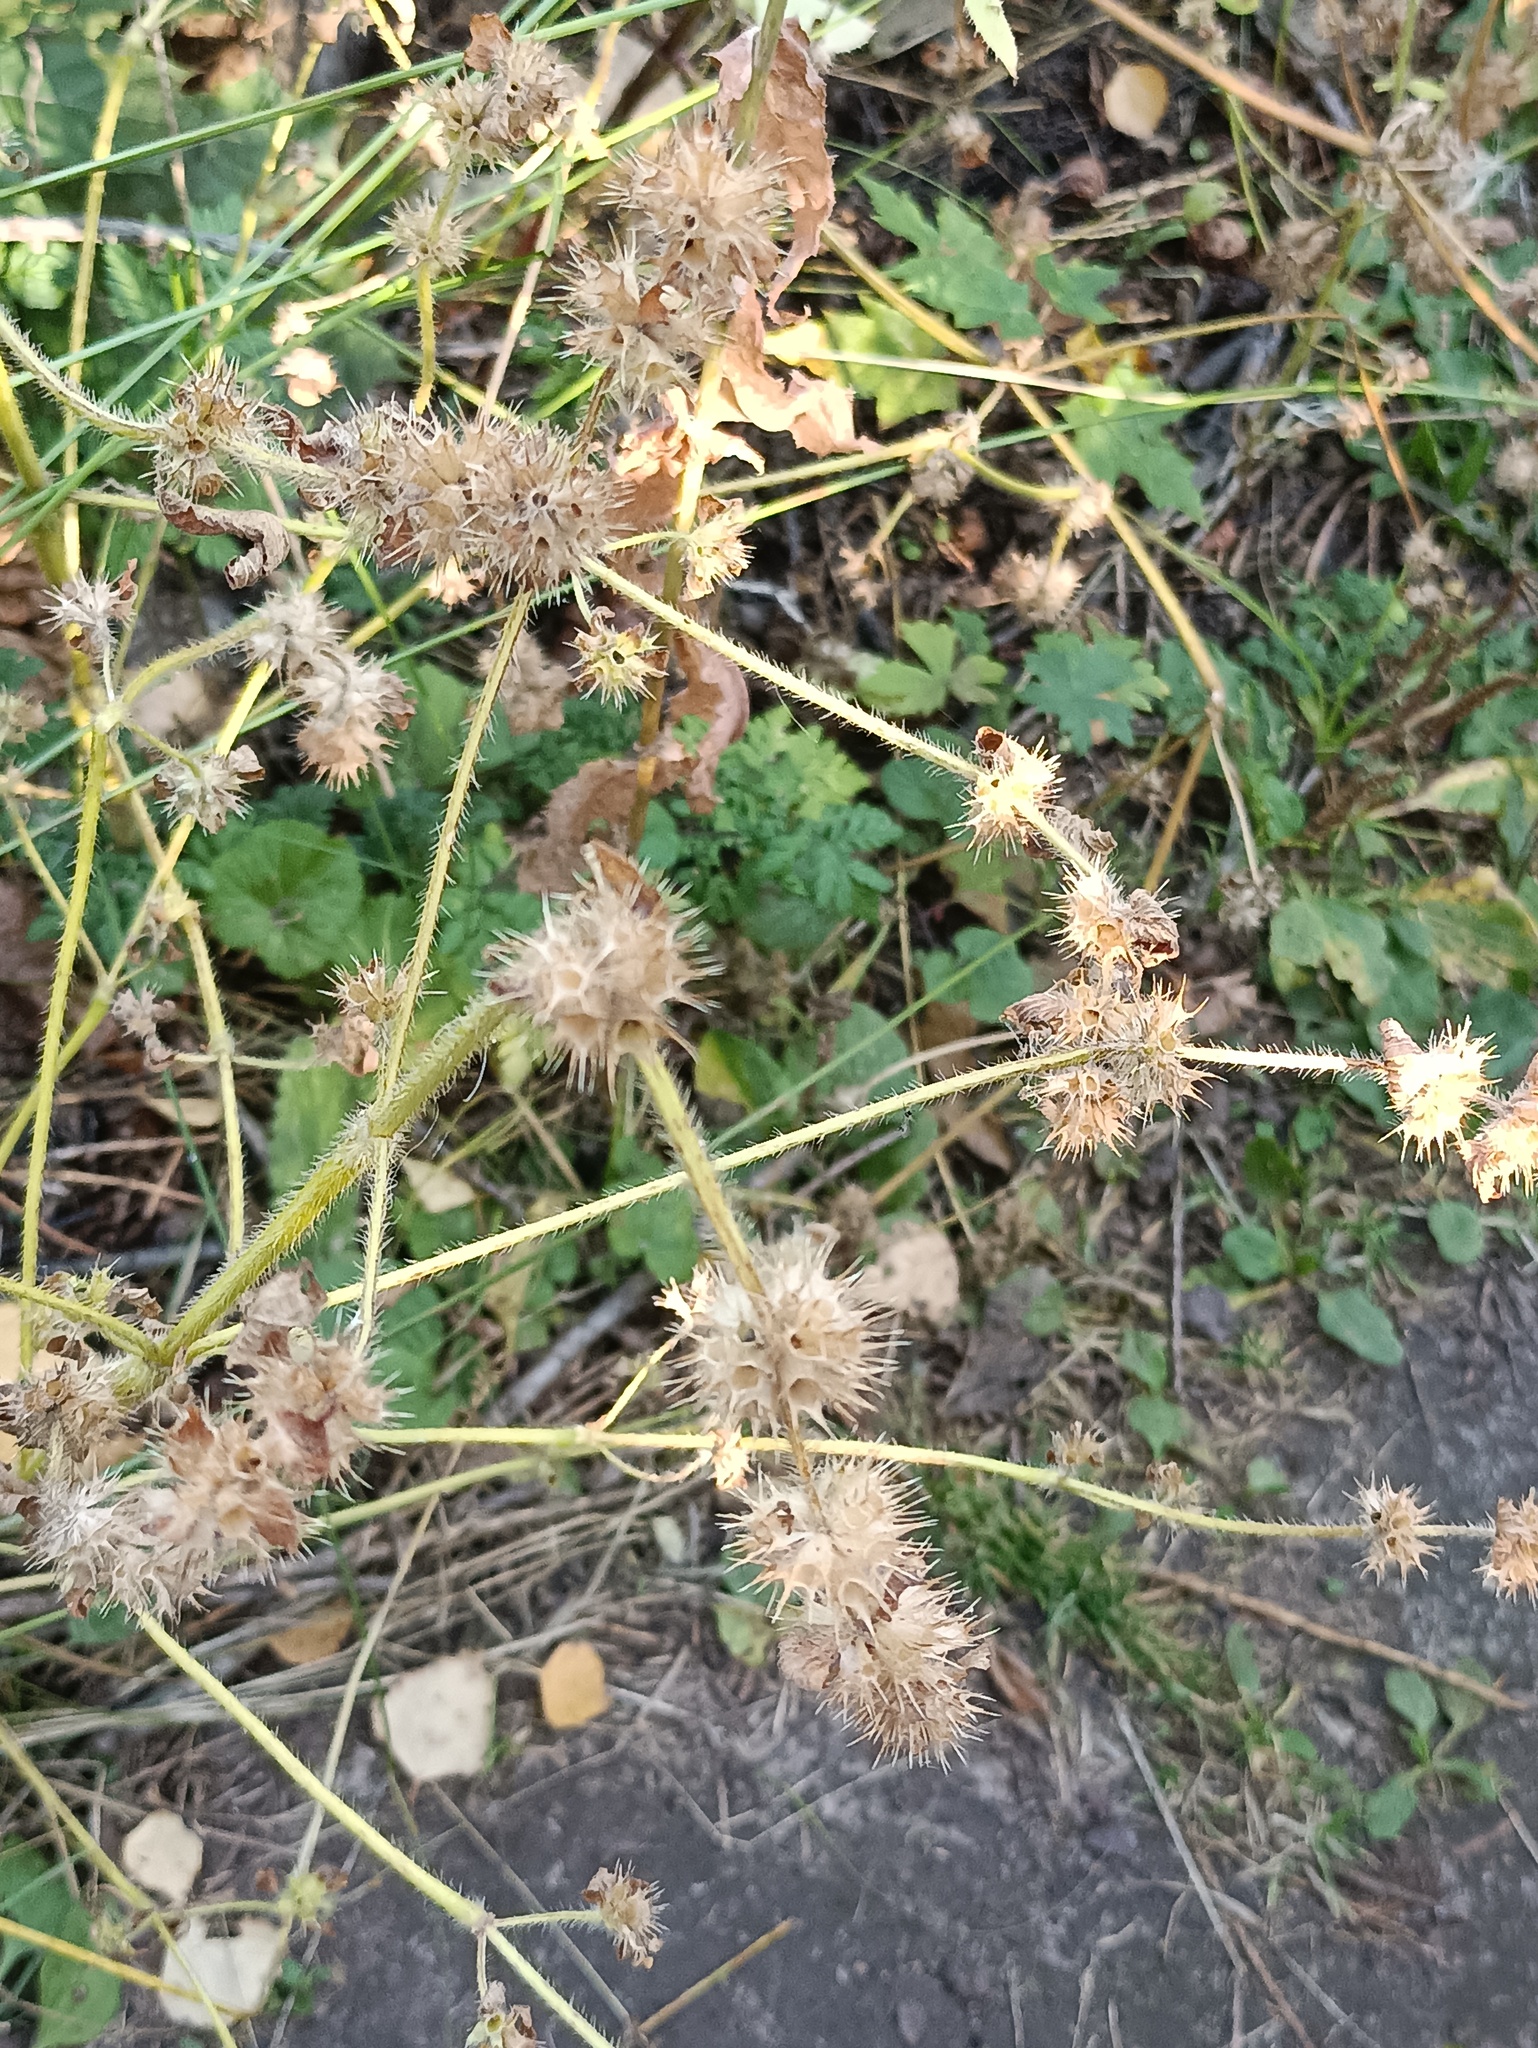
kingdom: Plantae
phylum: Tracheophyta
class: Magnoliopsida
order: Lamiales
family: Lamiaceae
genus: Galeopsis
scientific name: Galeopsis bifida
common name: Bifid hemp-nettle
